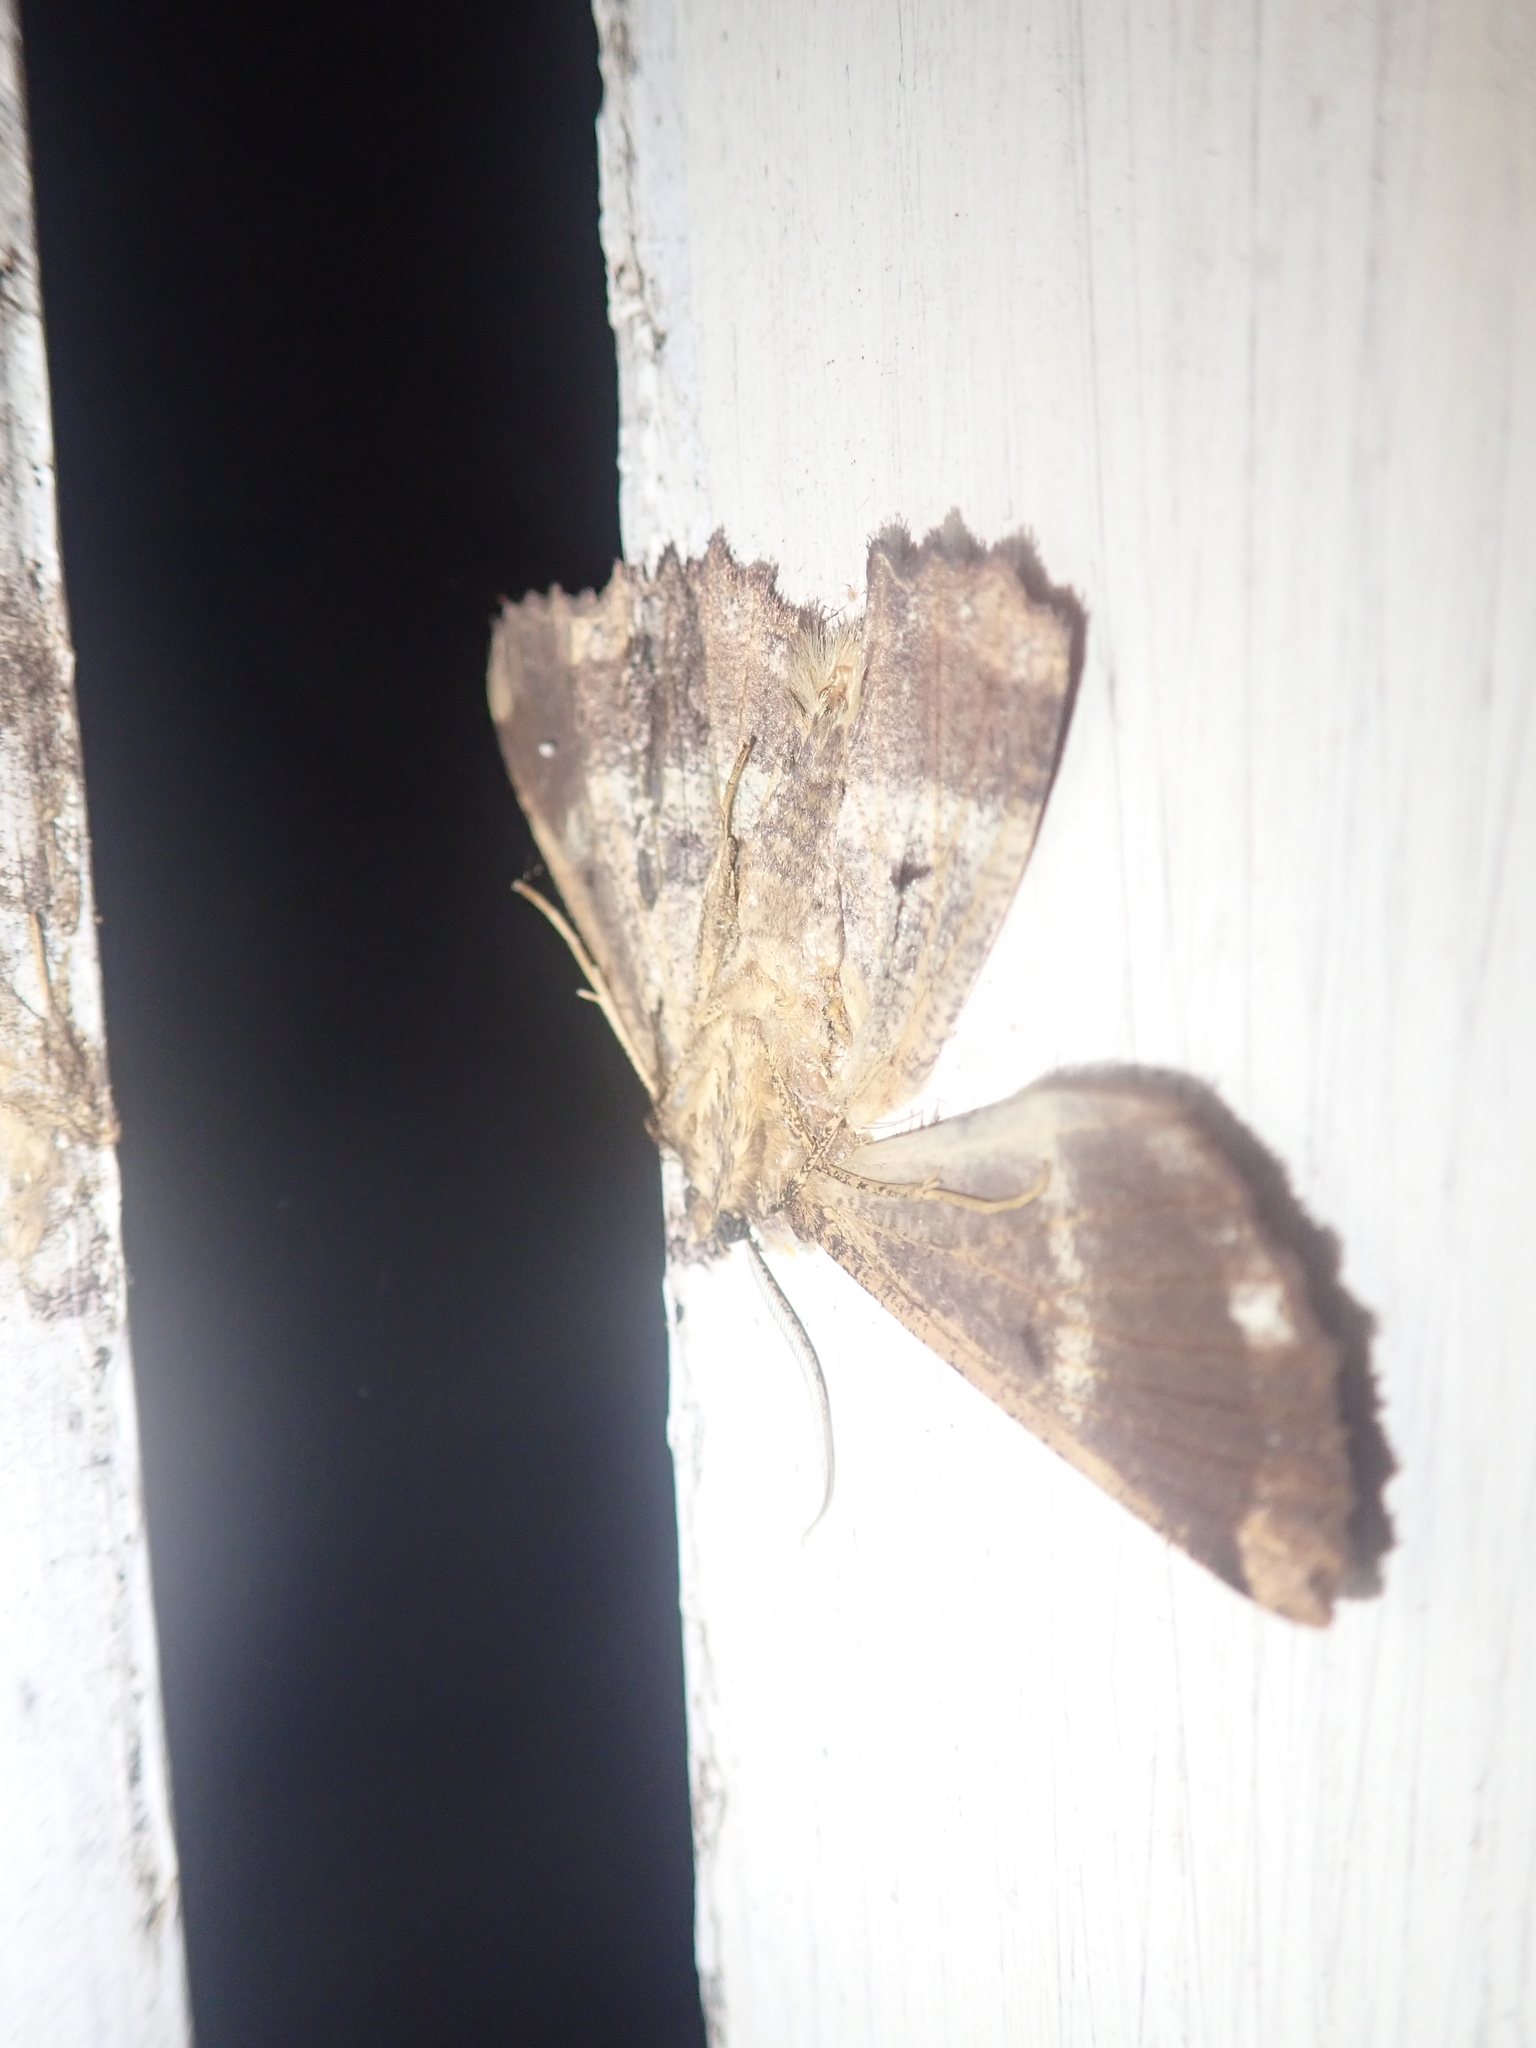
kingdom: Animalia
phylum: Arthropoda
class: Insecta
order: Lepidoptera
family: Geometridae
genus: Gellonia
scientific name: Gellonia dejectaria
